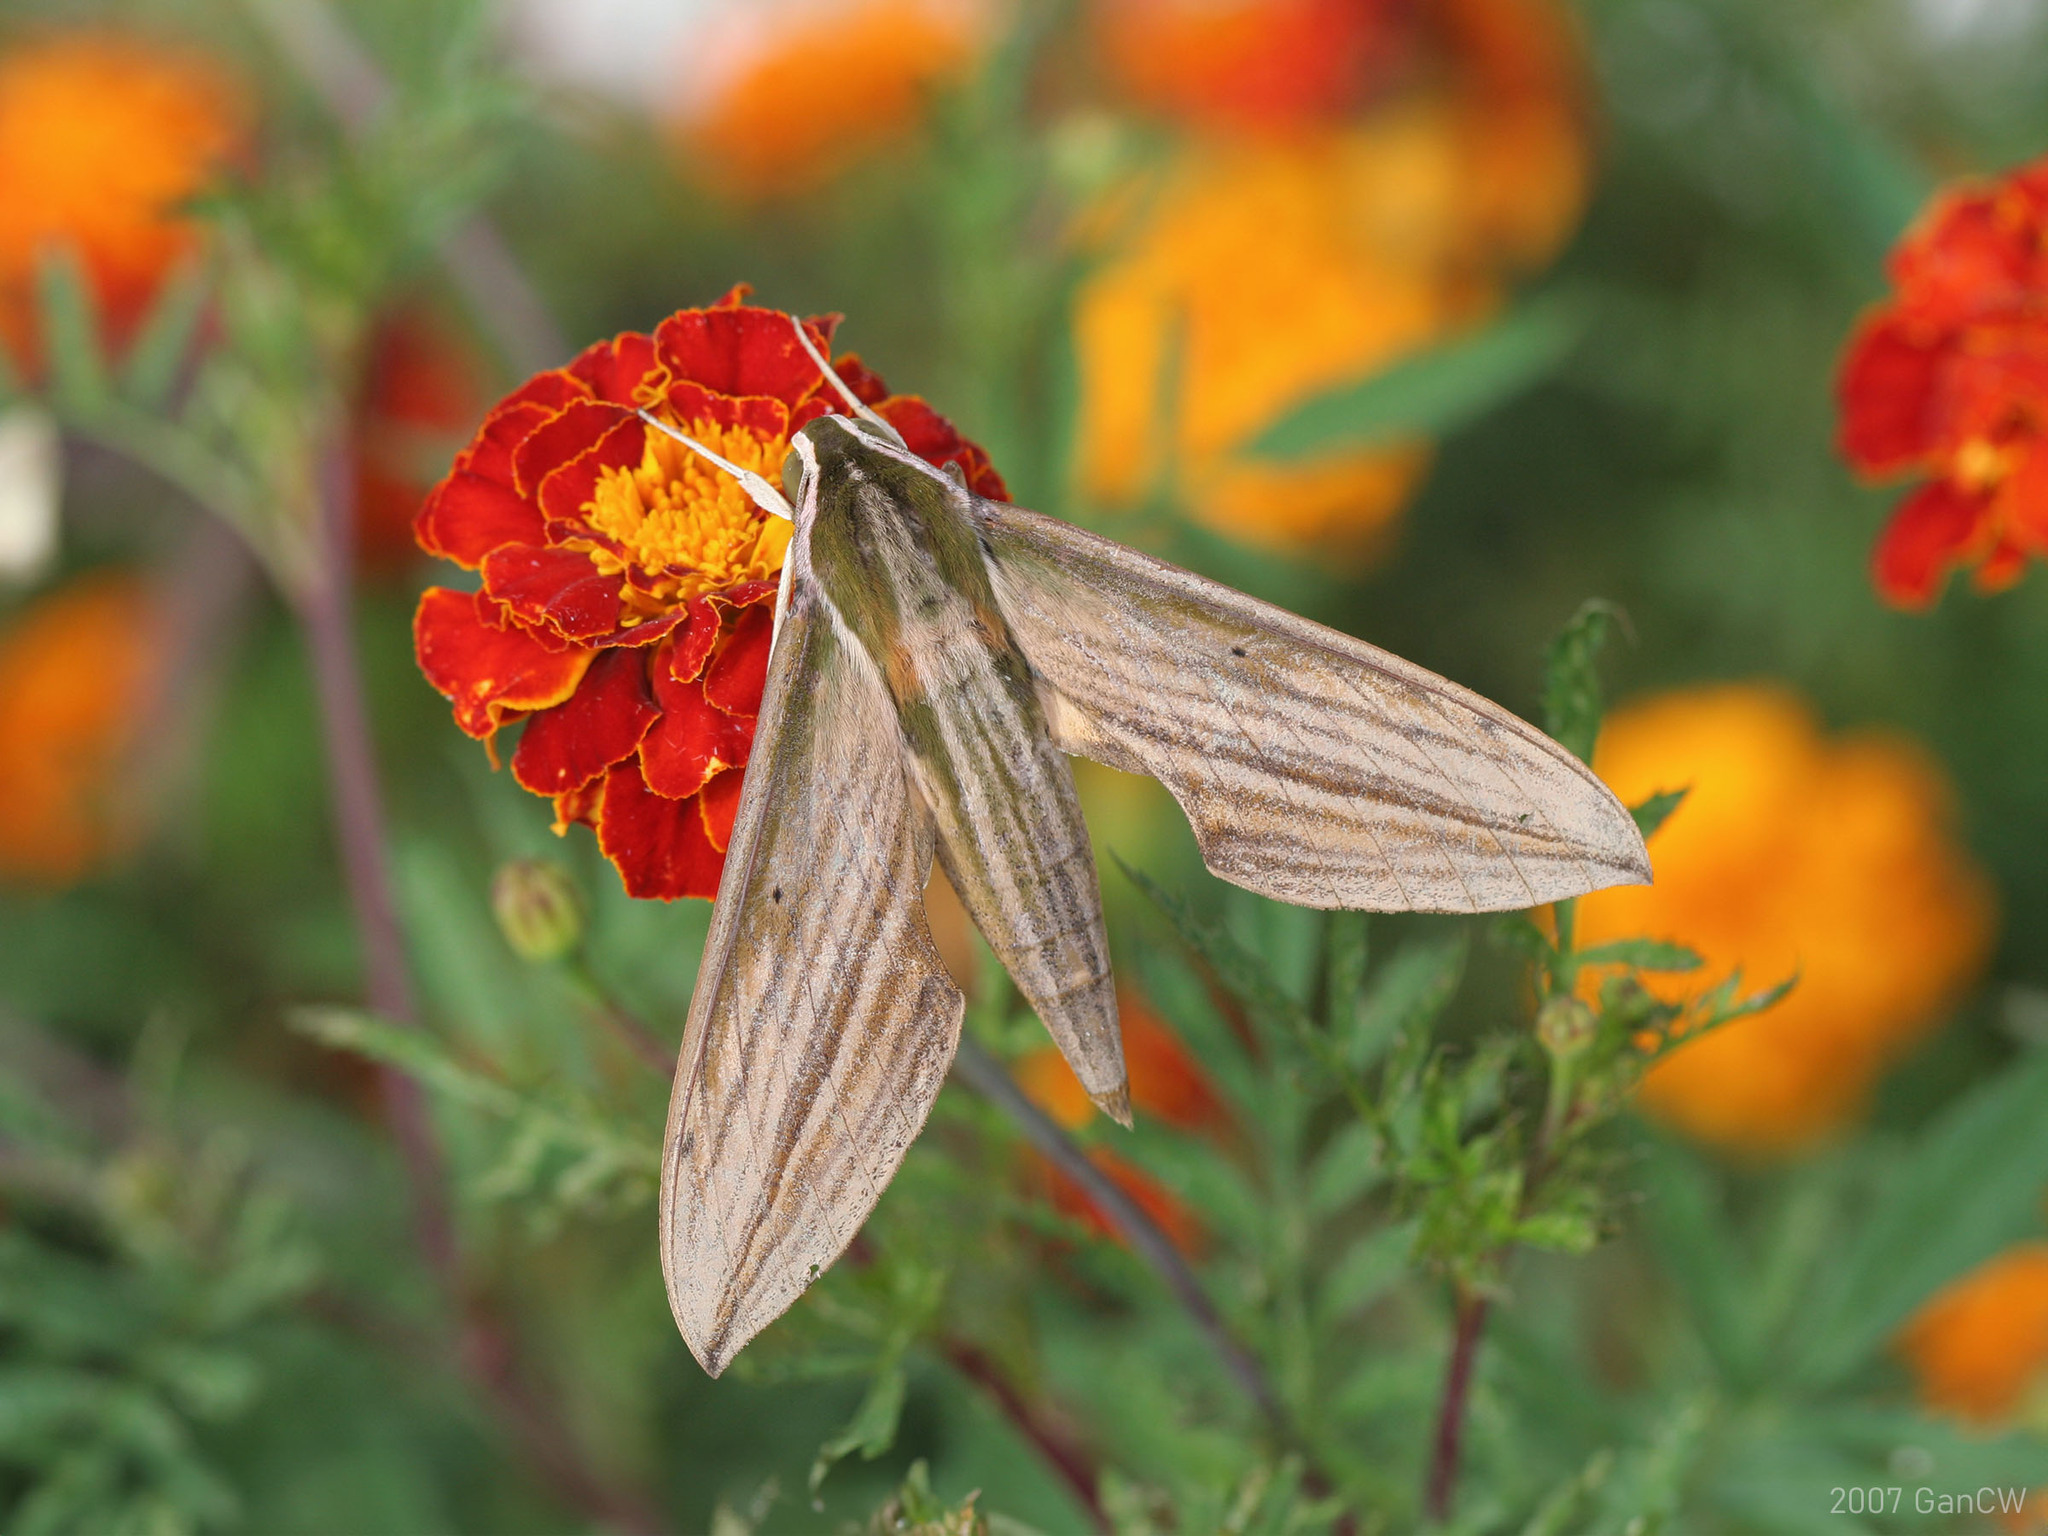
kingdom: Animalia
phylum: Arthropoda
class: Insecta
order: Lepidoptera
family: Sphingidae
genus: Cechetra
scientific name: Cechetra lineosa
